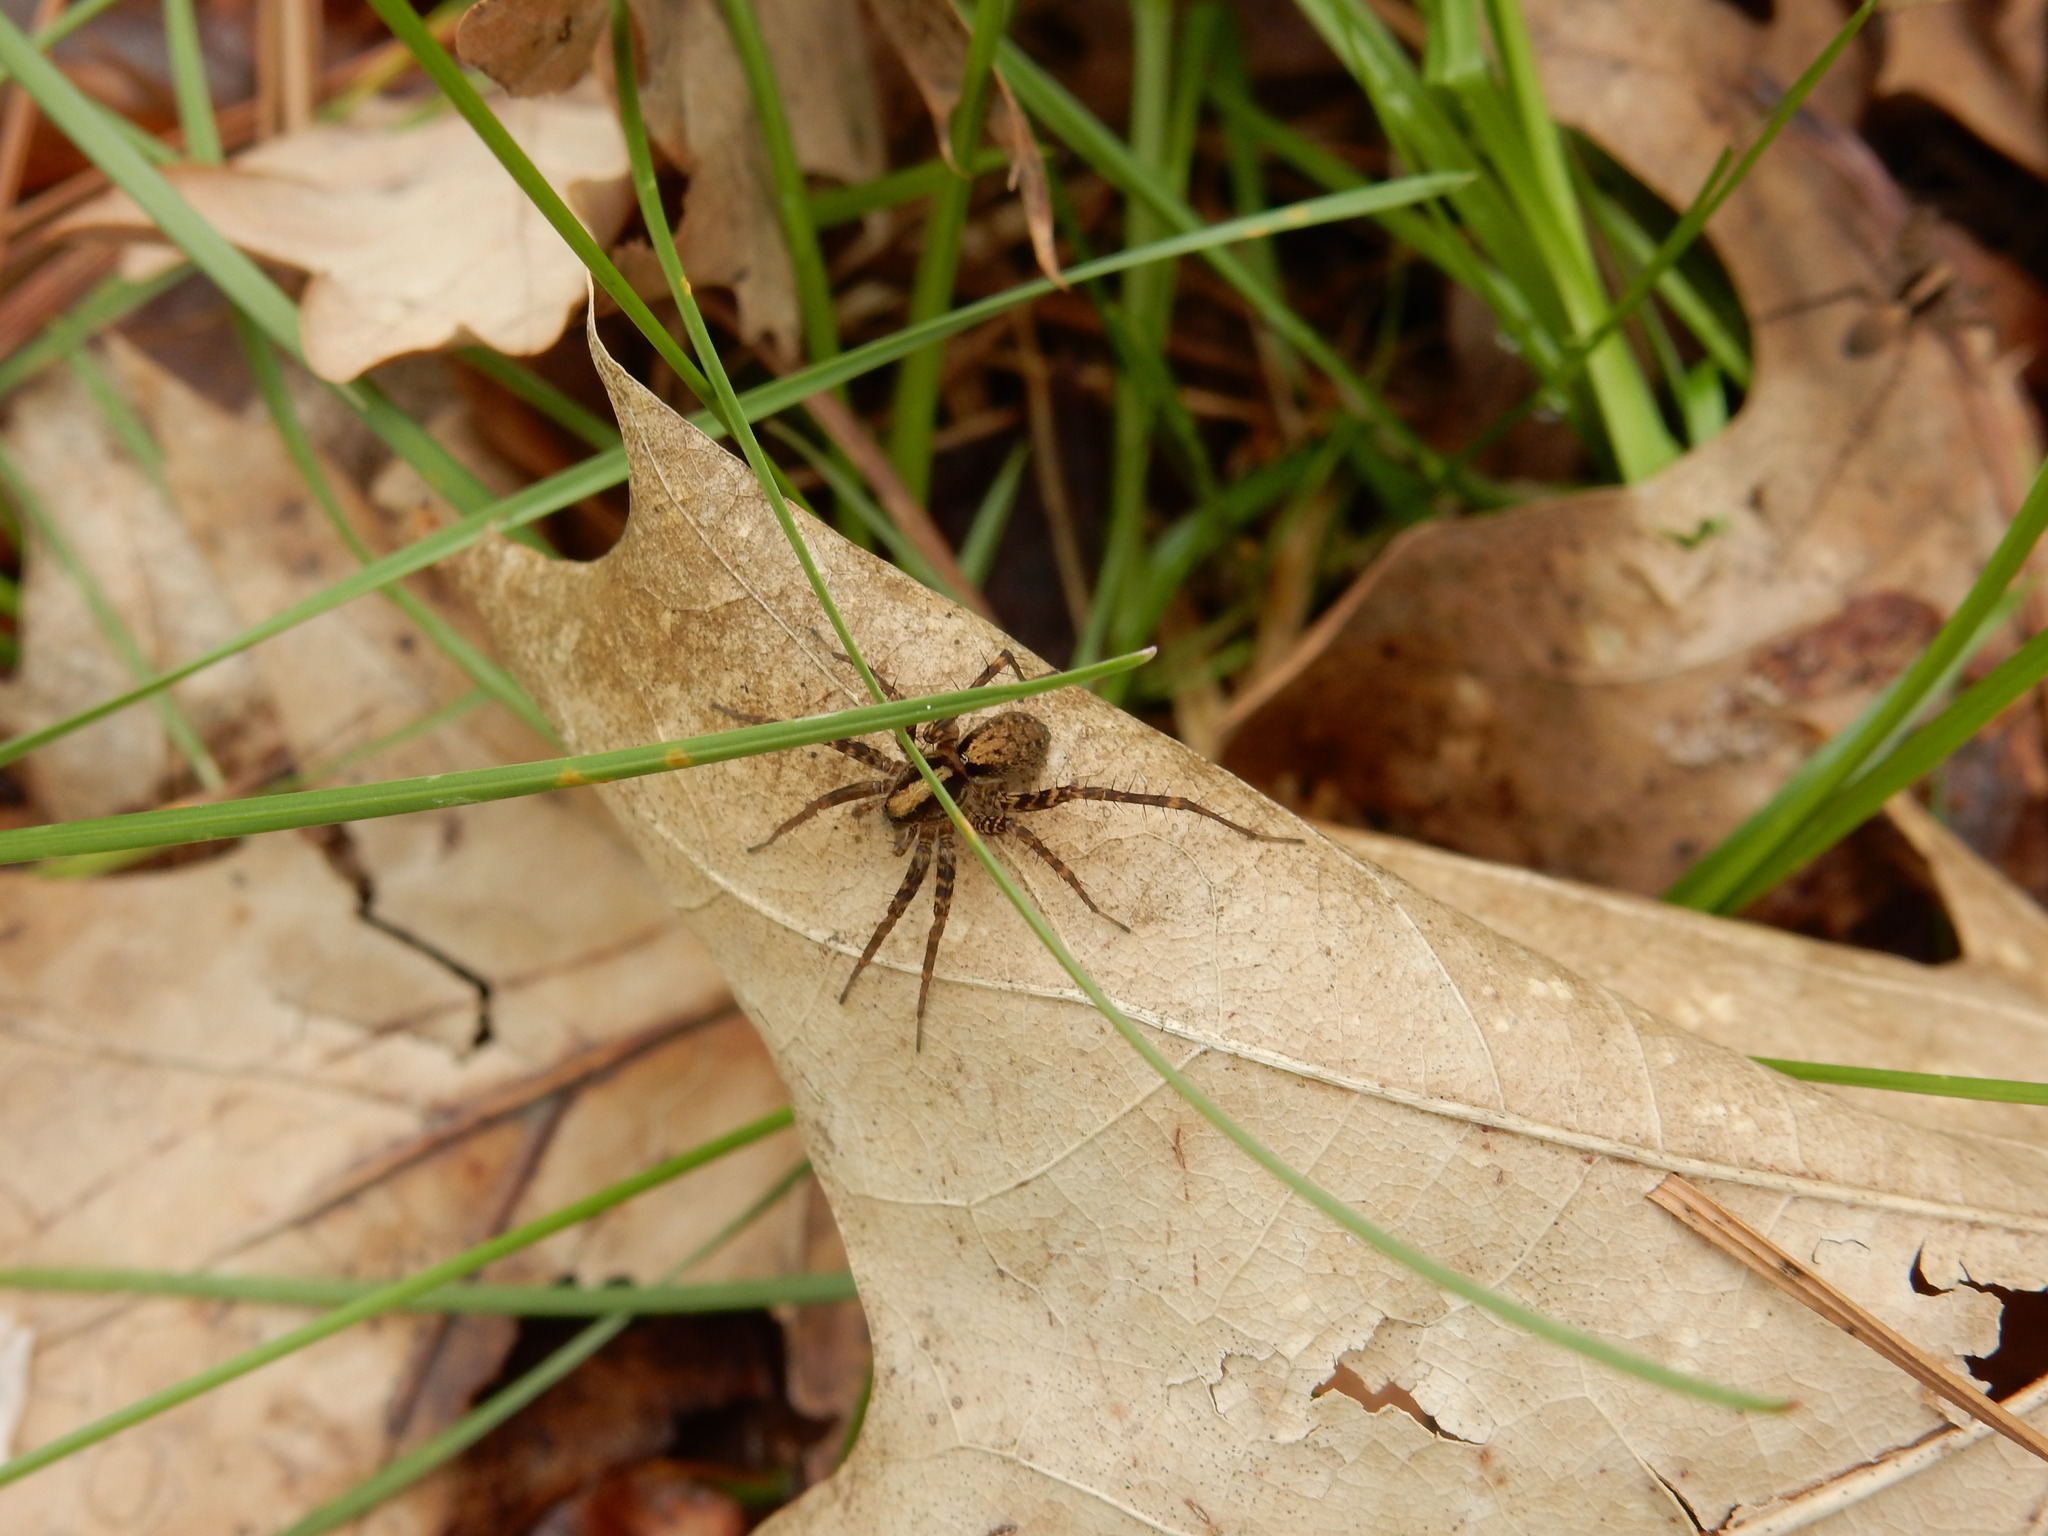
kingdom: Animalia
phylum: Arthropoda
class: Arachnida
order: Araneae
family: Lycosidae
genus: Pardosa
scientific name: Pardosa
